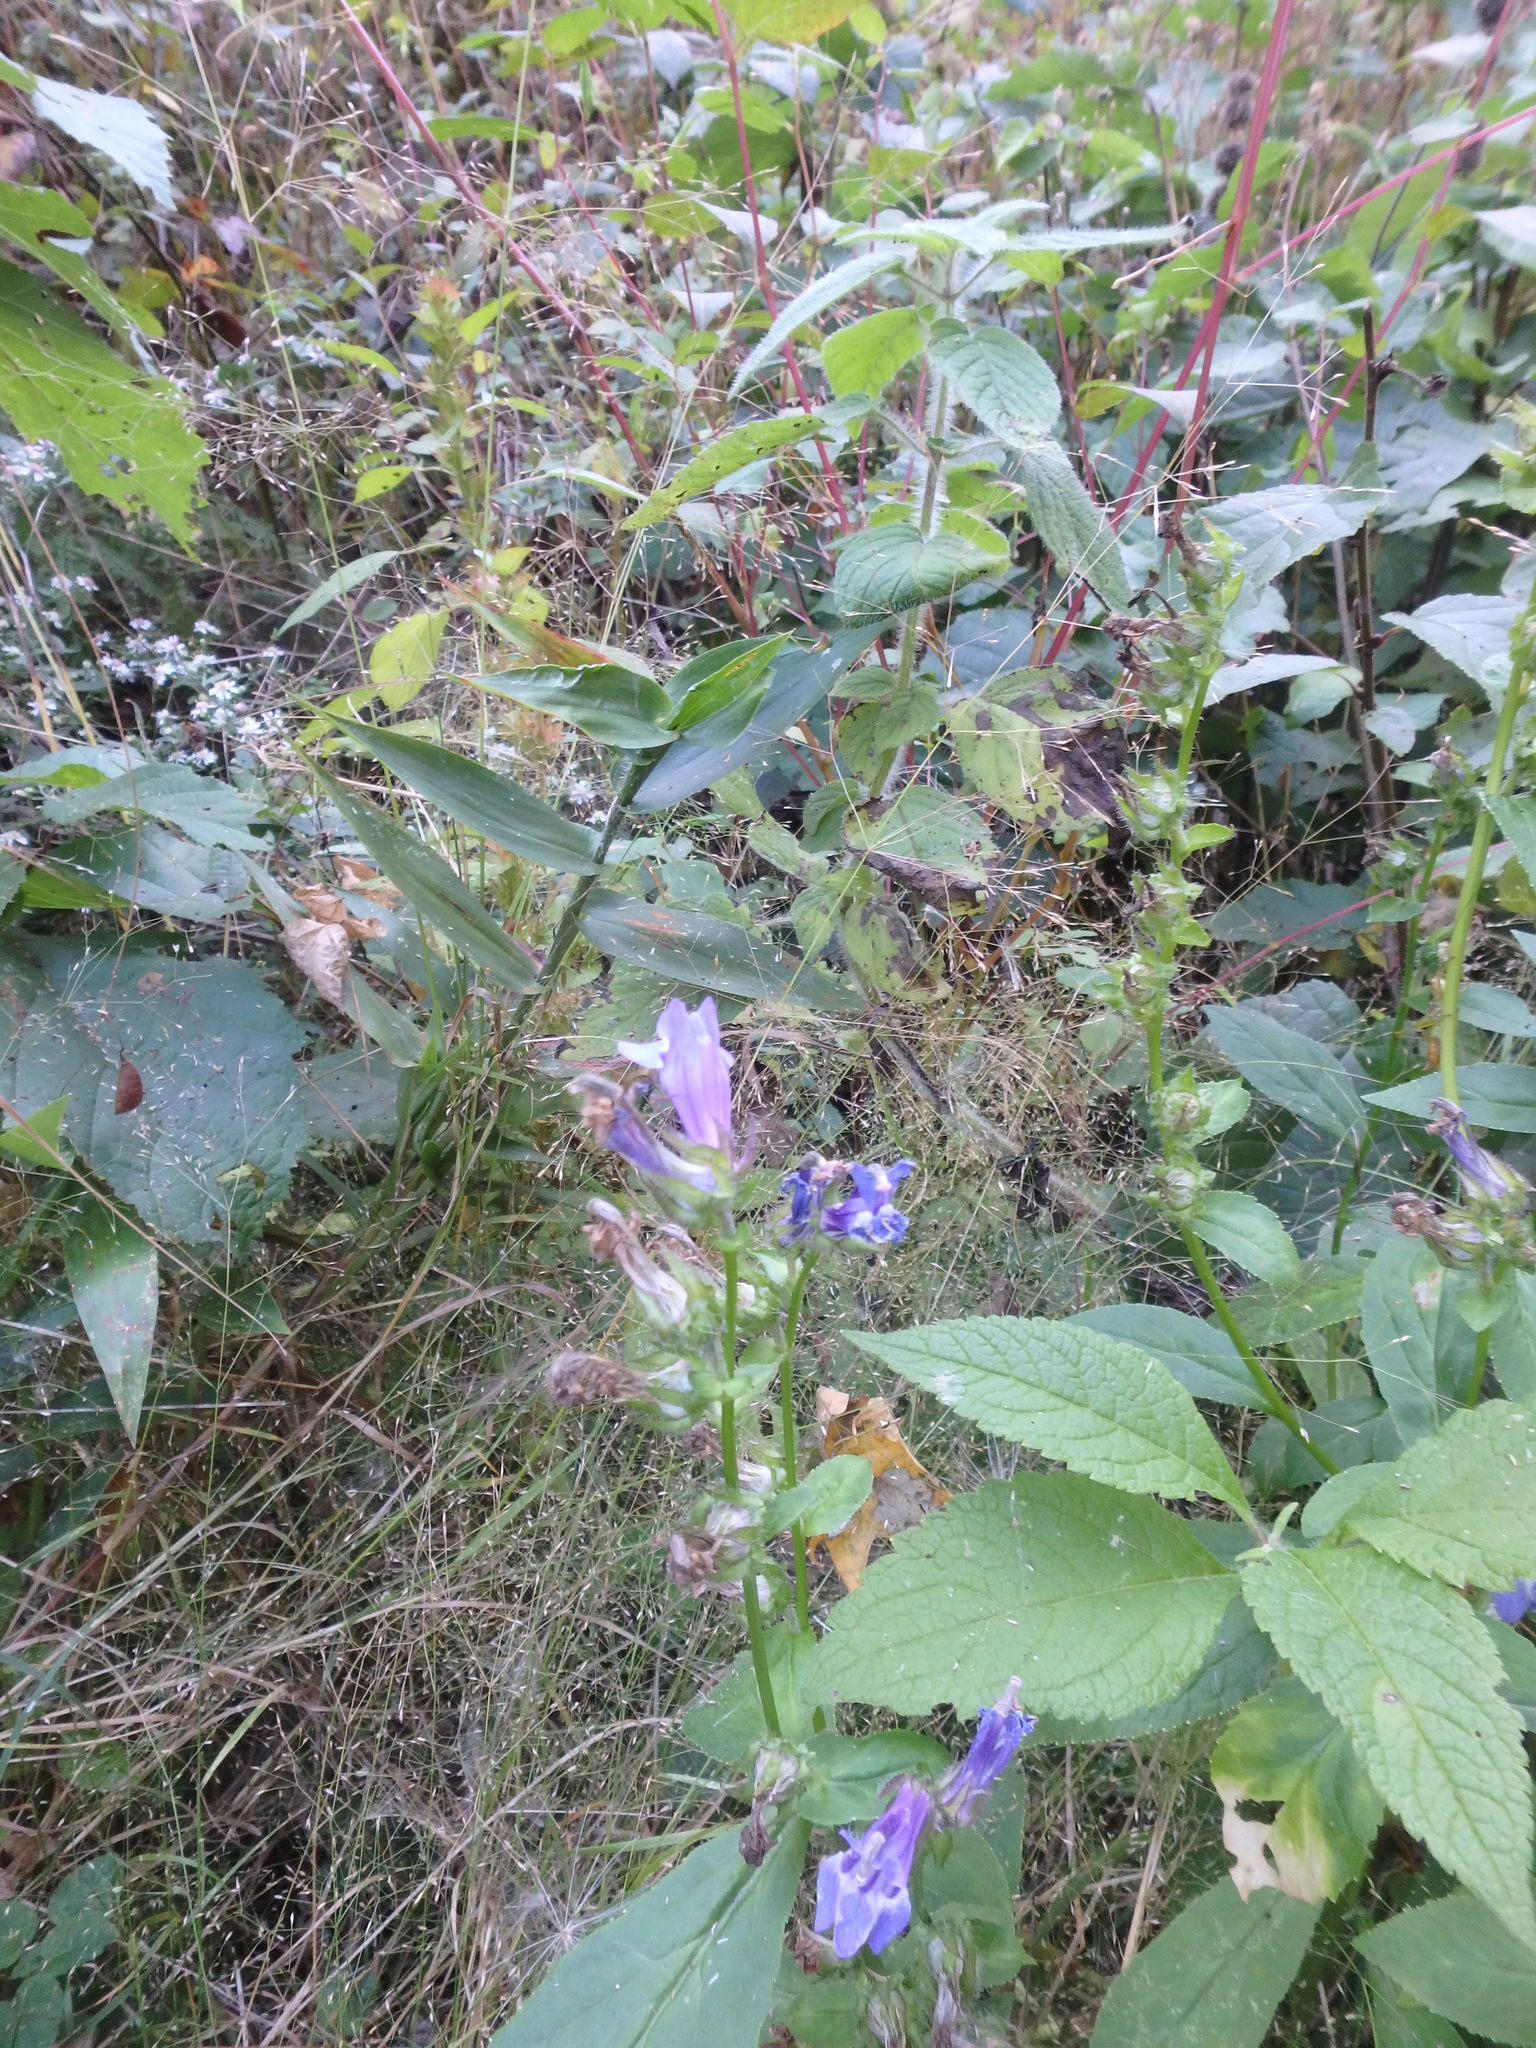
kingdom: Plantae
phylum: Tracheophyta
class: Magnoliopsida
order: Asterales
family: Campanulaceae
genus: Lobelia
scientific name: Lobelia siphilitica
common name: Great lobelia
